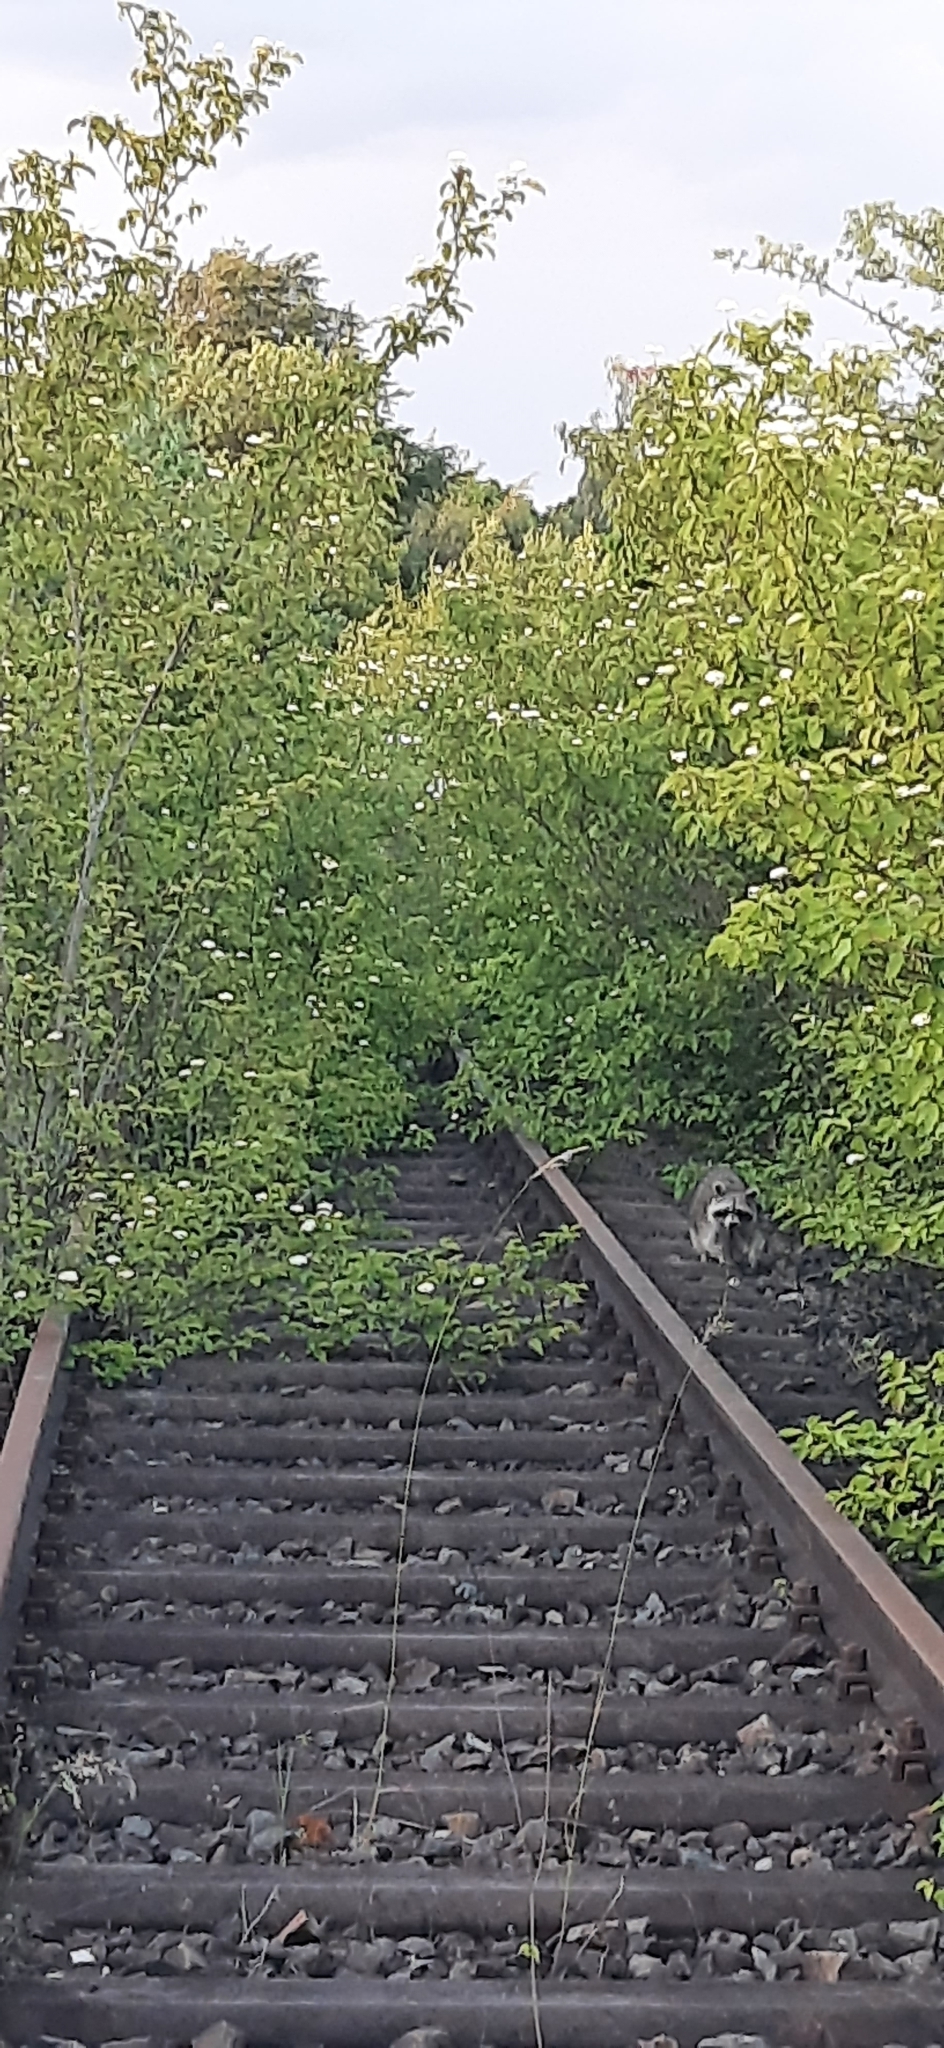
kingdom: Animalia
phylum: Chordata
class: Mammalia
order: Carnivora
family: Procyonidae
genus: Procyon
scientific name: Procyon lotor
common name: Raccoon
